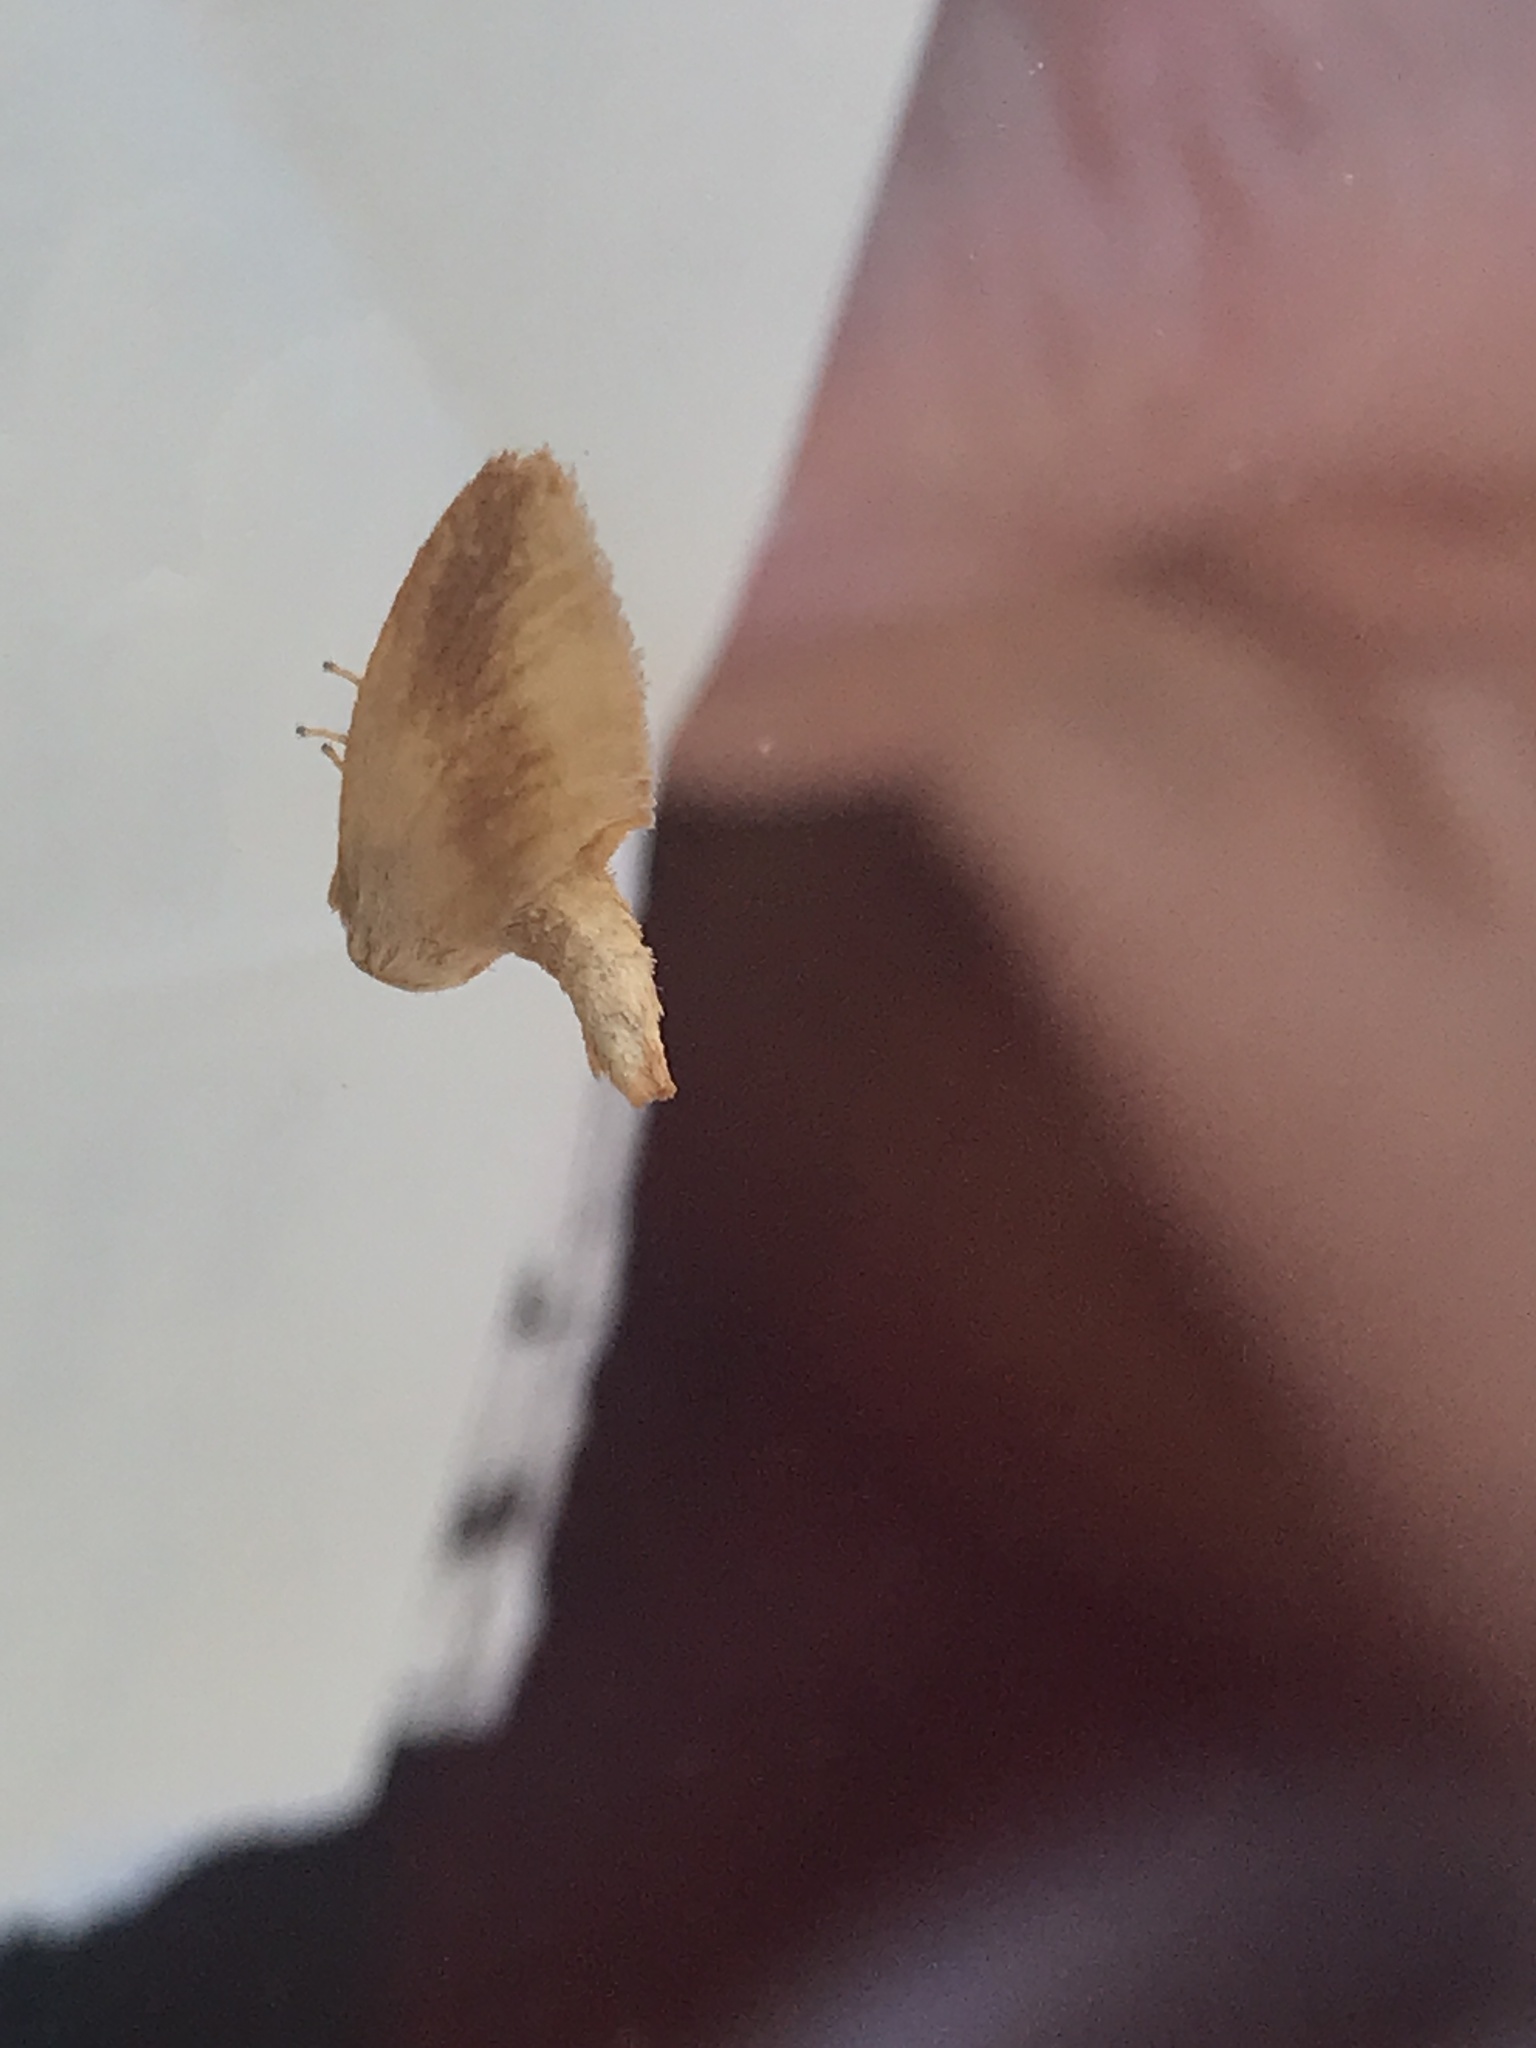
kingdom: Animalia
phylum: Arthropoda
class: Insecta
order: Lepidoptera
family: Limacodidae
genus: Tortricidia
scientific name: Tortricidia testacea
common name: Early button slug moth
